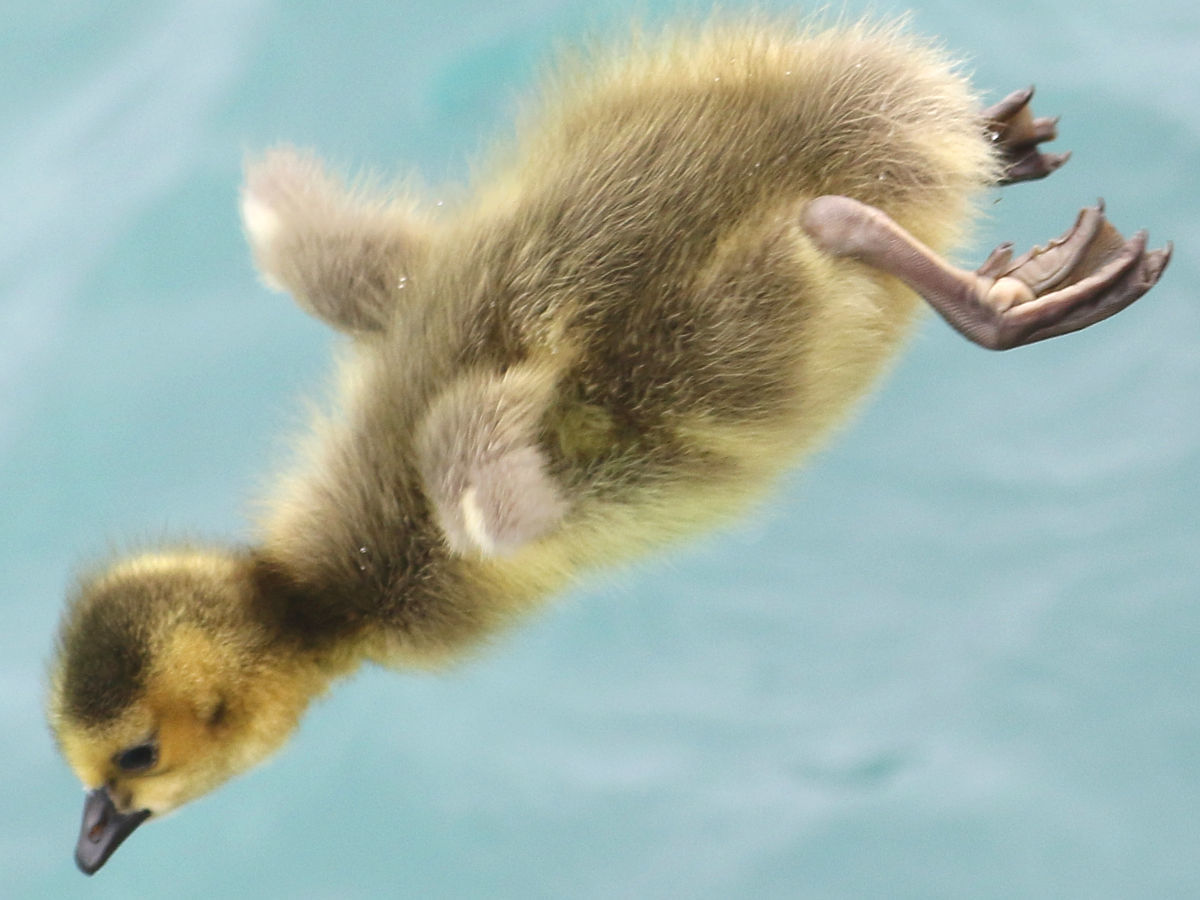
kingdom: Animalia
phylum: Chordata
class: Aves
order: Anseriformes
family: Anatidae
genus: Branta
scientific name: Branta canadensis
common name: Canada goose
